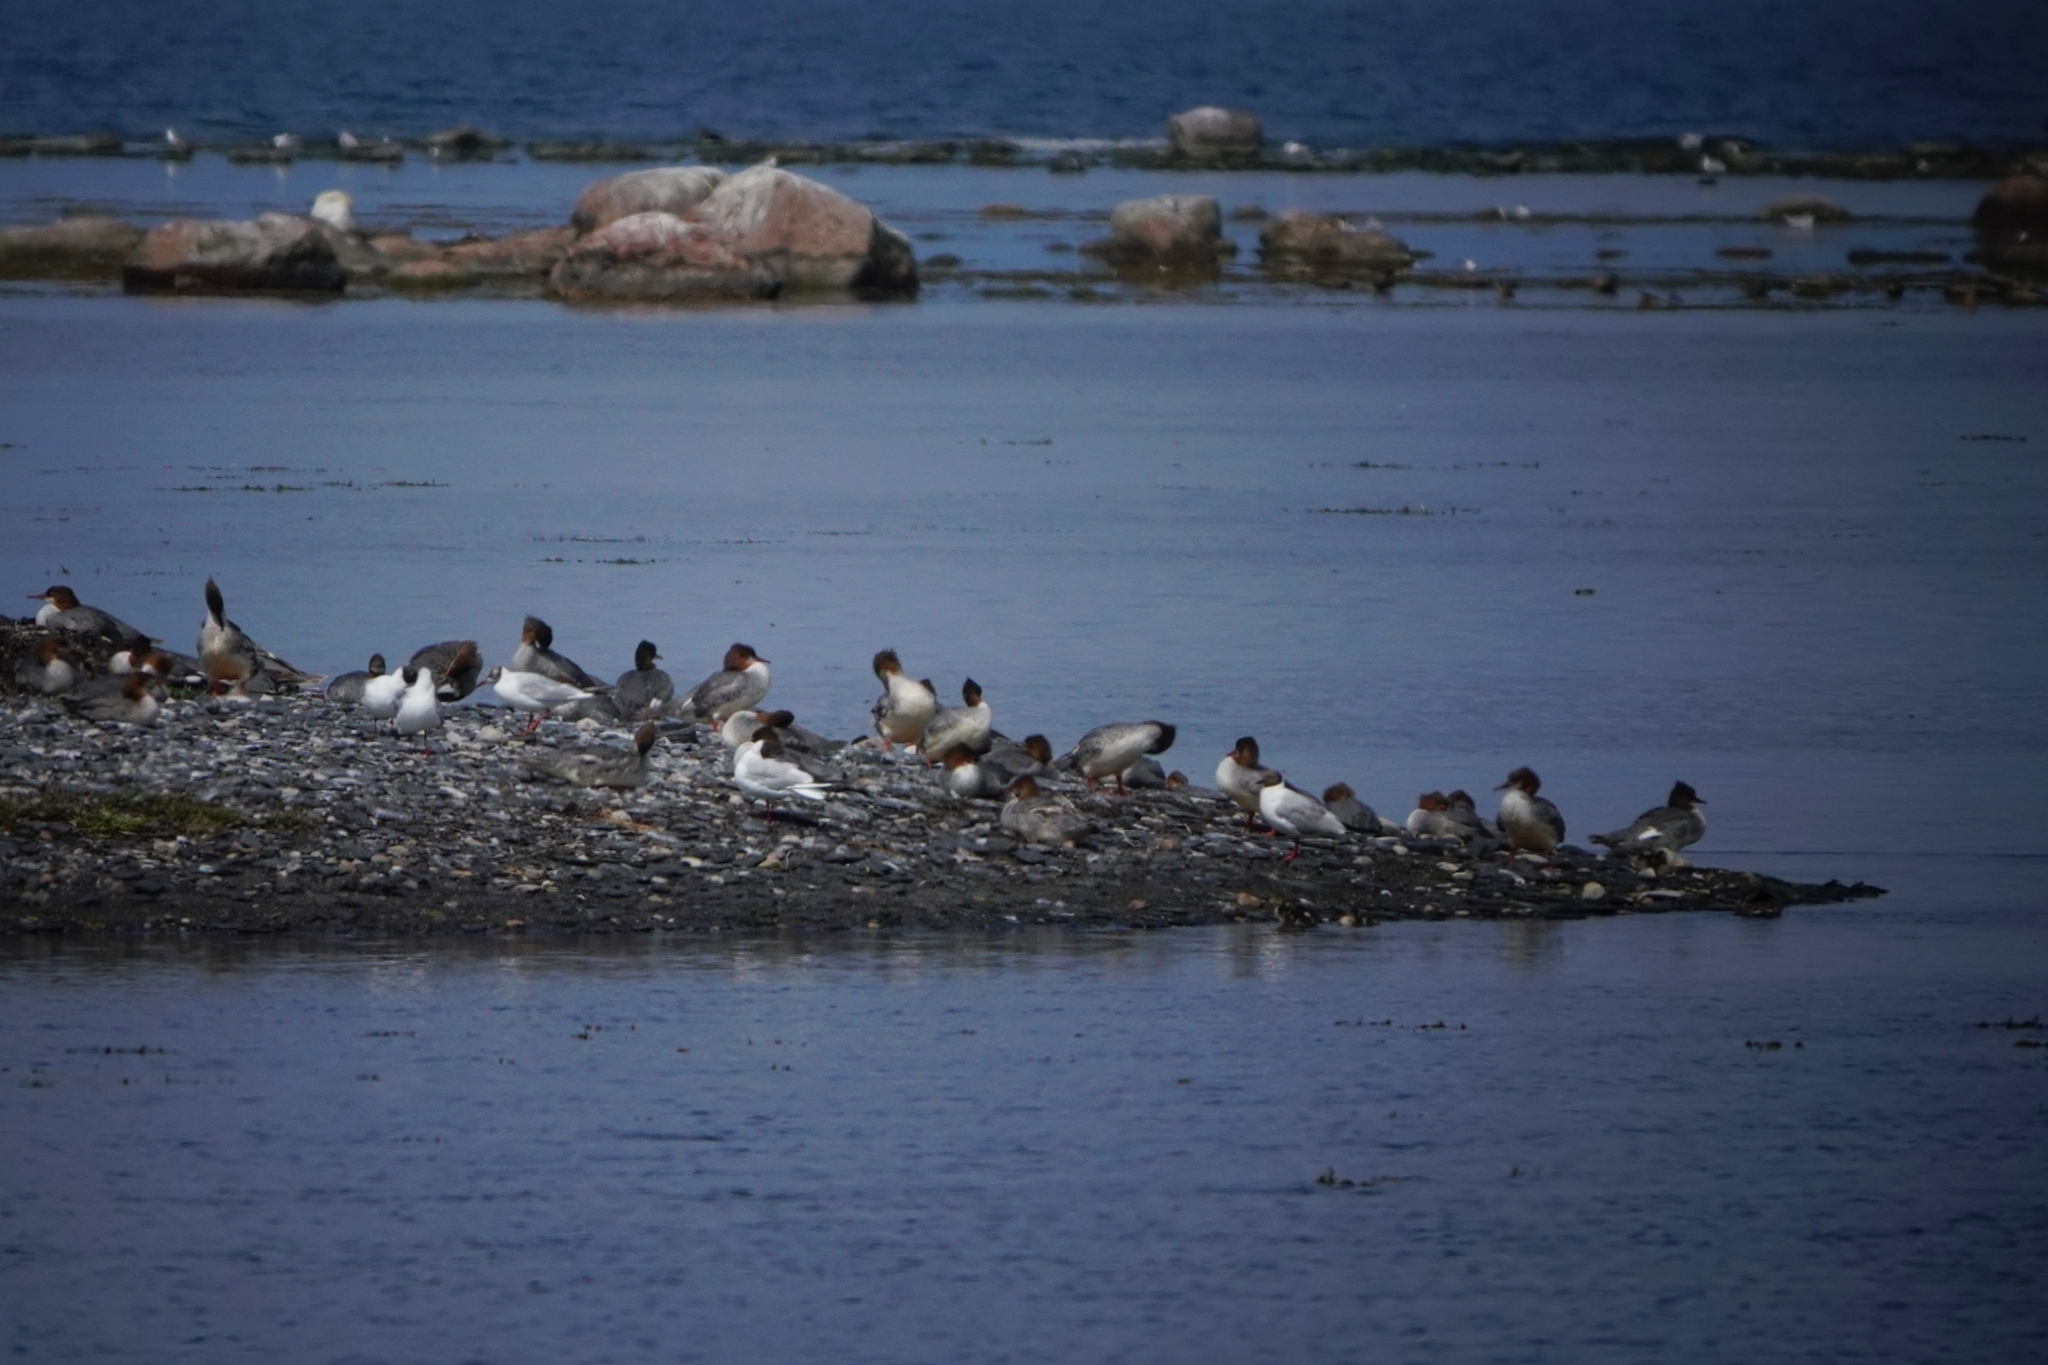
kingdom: Animalia
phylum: Chordata
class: Aves
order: Anseriformes
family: Anatidae
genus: Mergus
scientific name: Mergus merganser
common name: Common merganser
